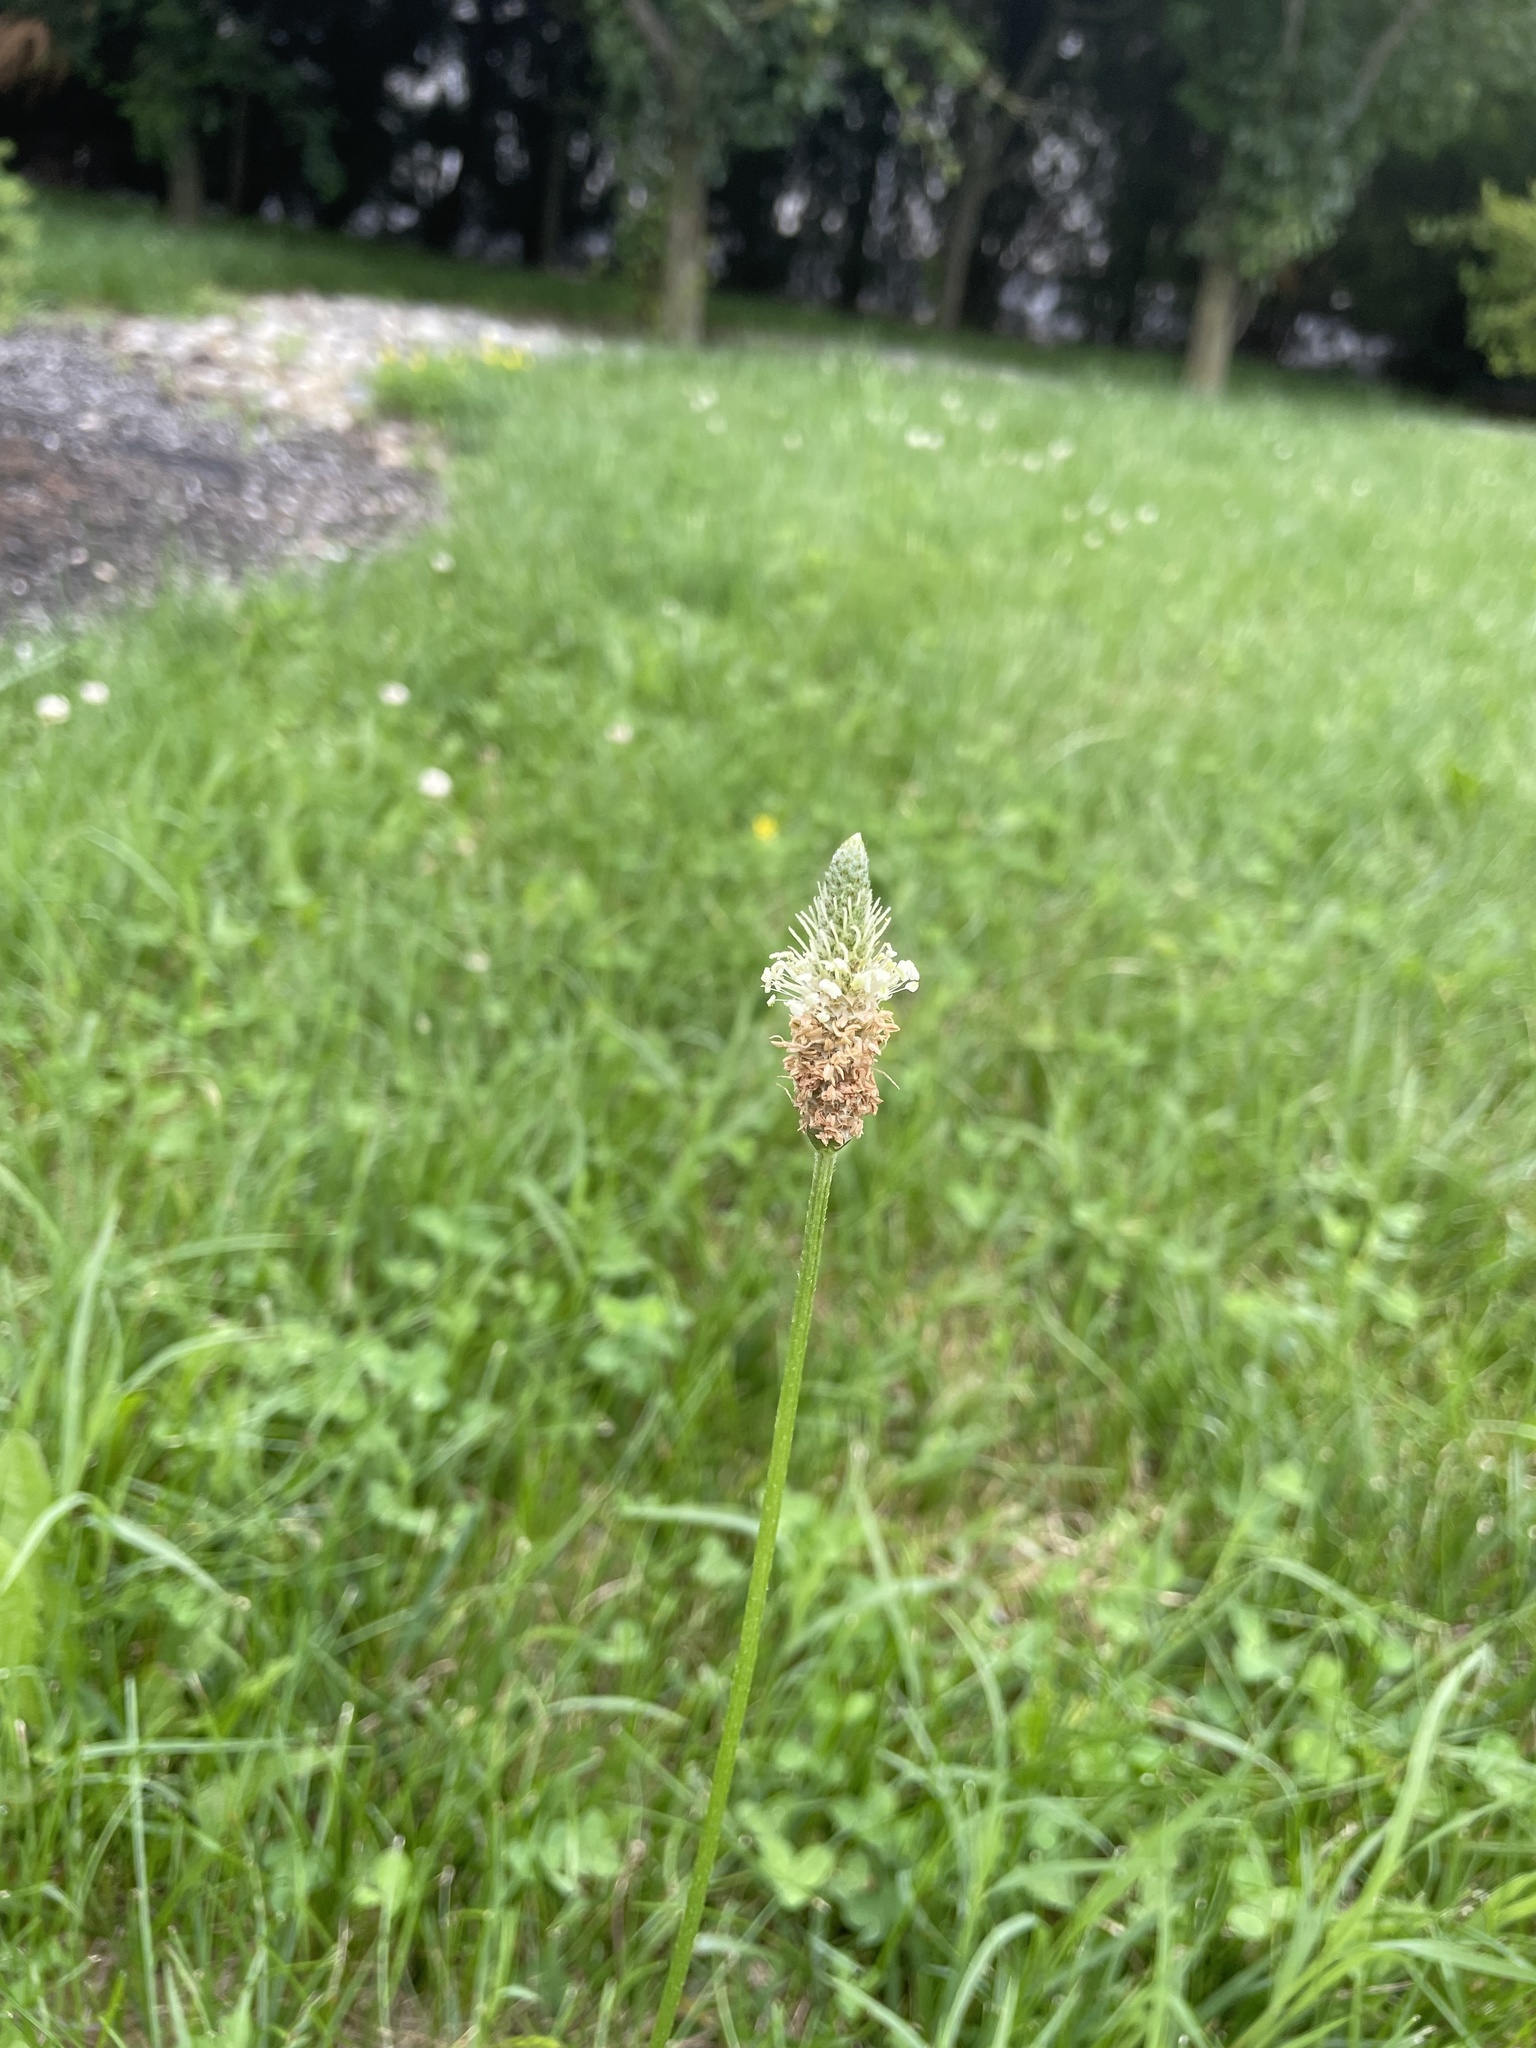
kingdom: Plantae
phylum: Tracheophyta
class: Magnoliopsida
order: Lamiales
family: Plantaginaceae
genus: Plantago
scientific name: Plantago lanceolata
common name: Ribwort plantain
